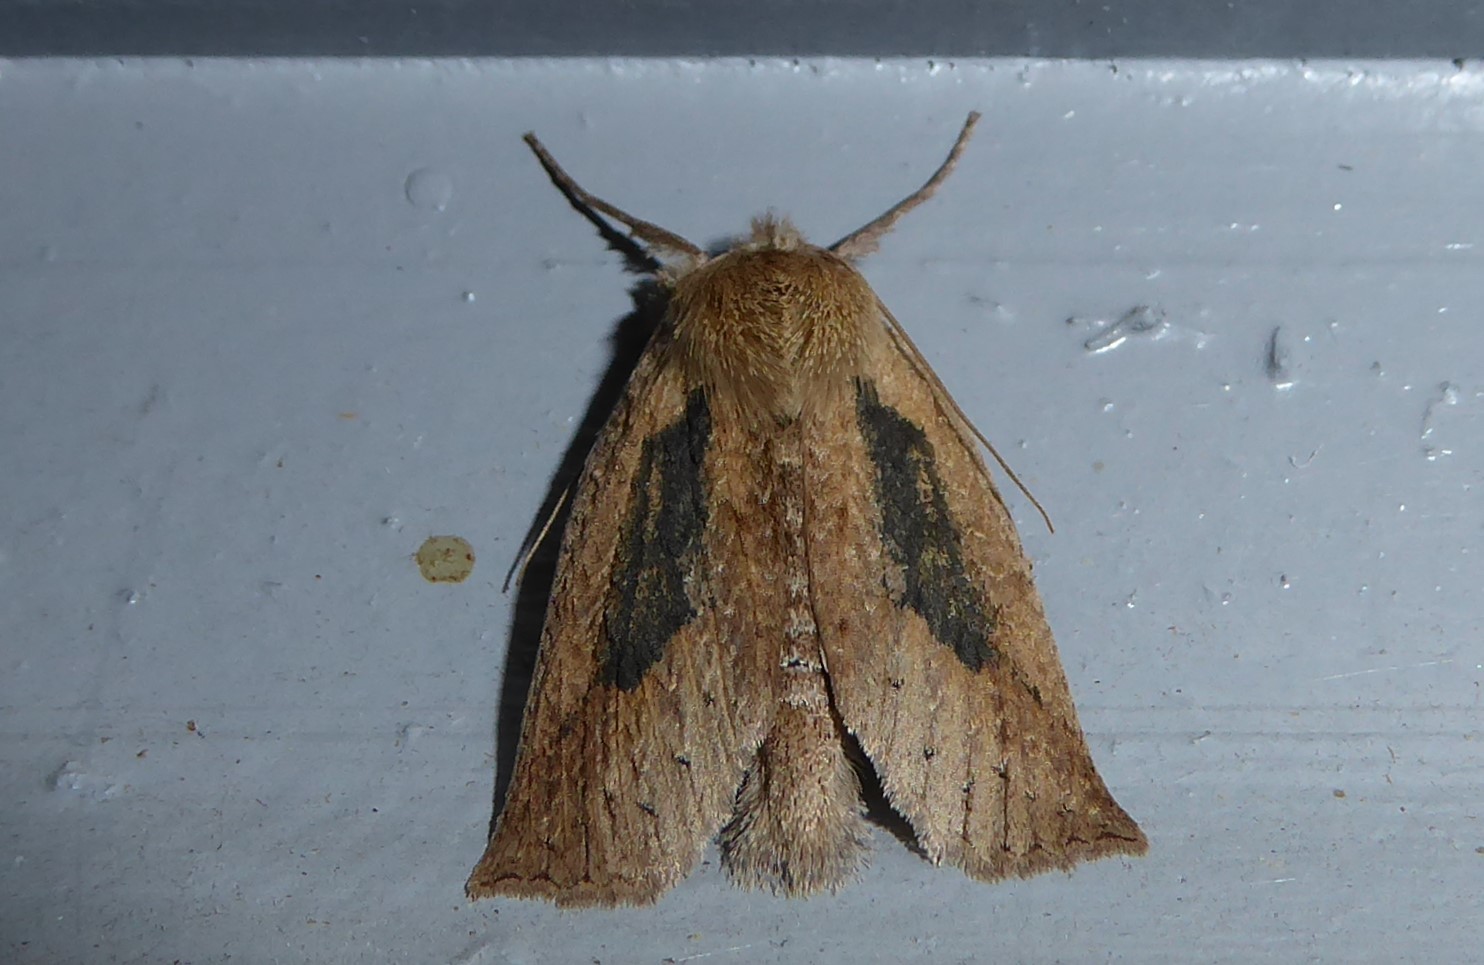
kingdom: Animalia
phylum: Arthropoda
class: Insecta
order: Lepidoptera
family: Geometridae
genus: Declana
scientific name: Declana leptomera
